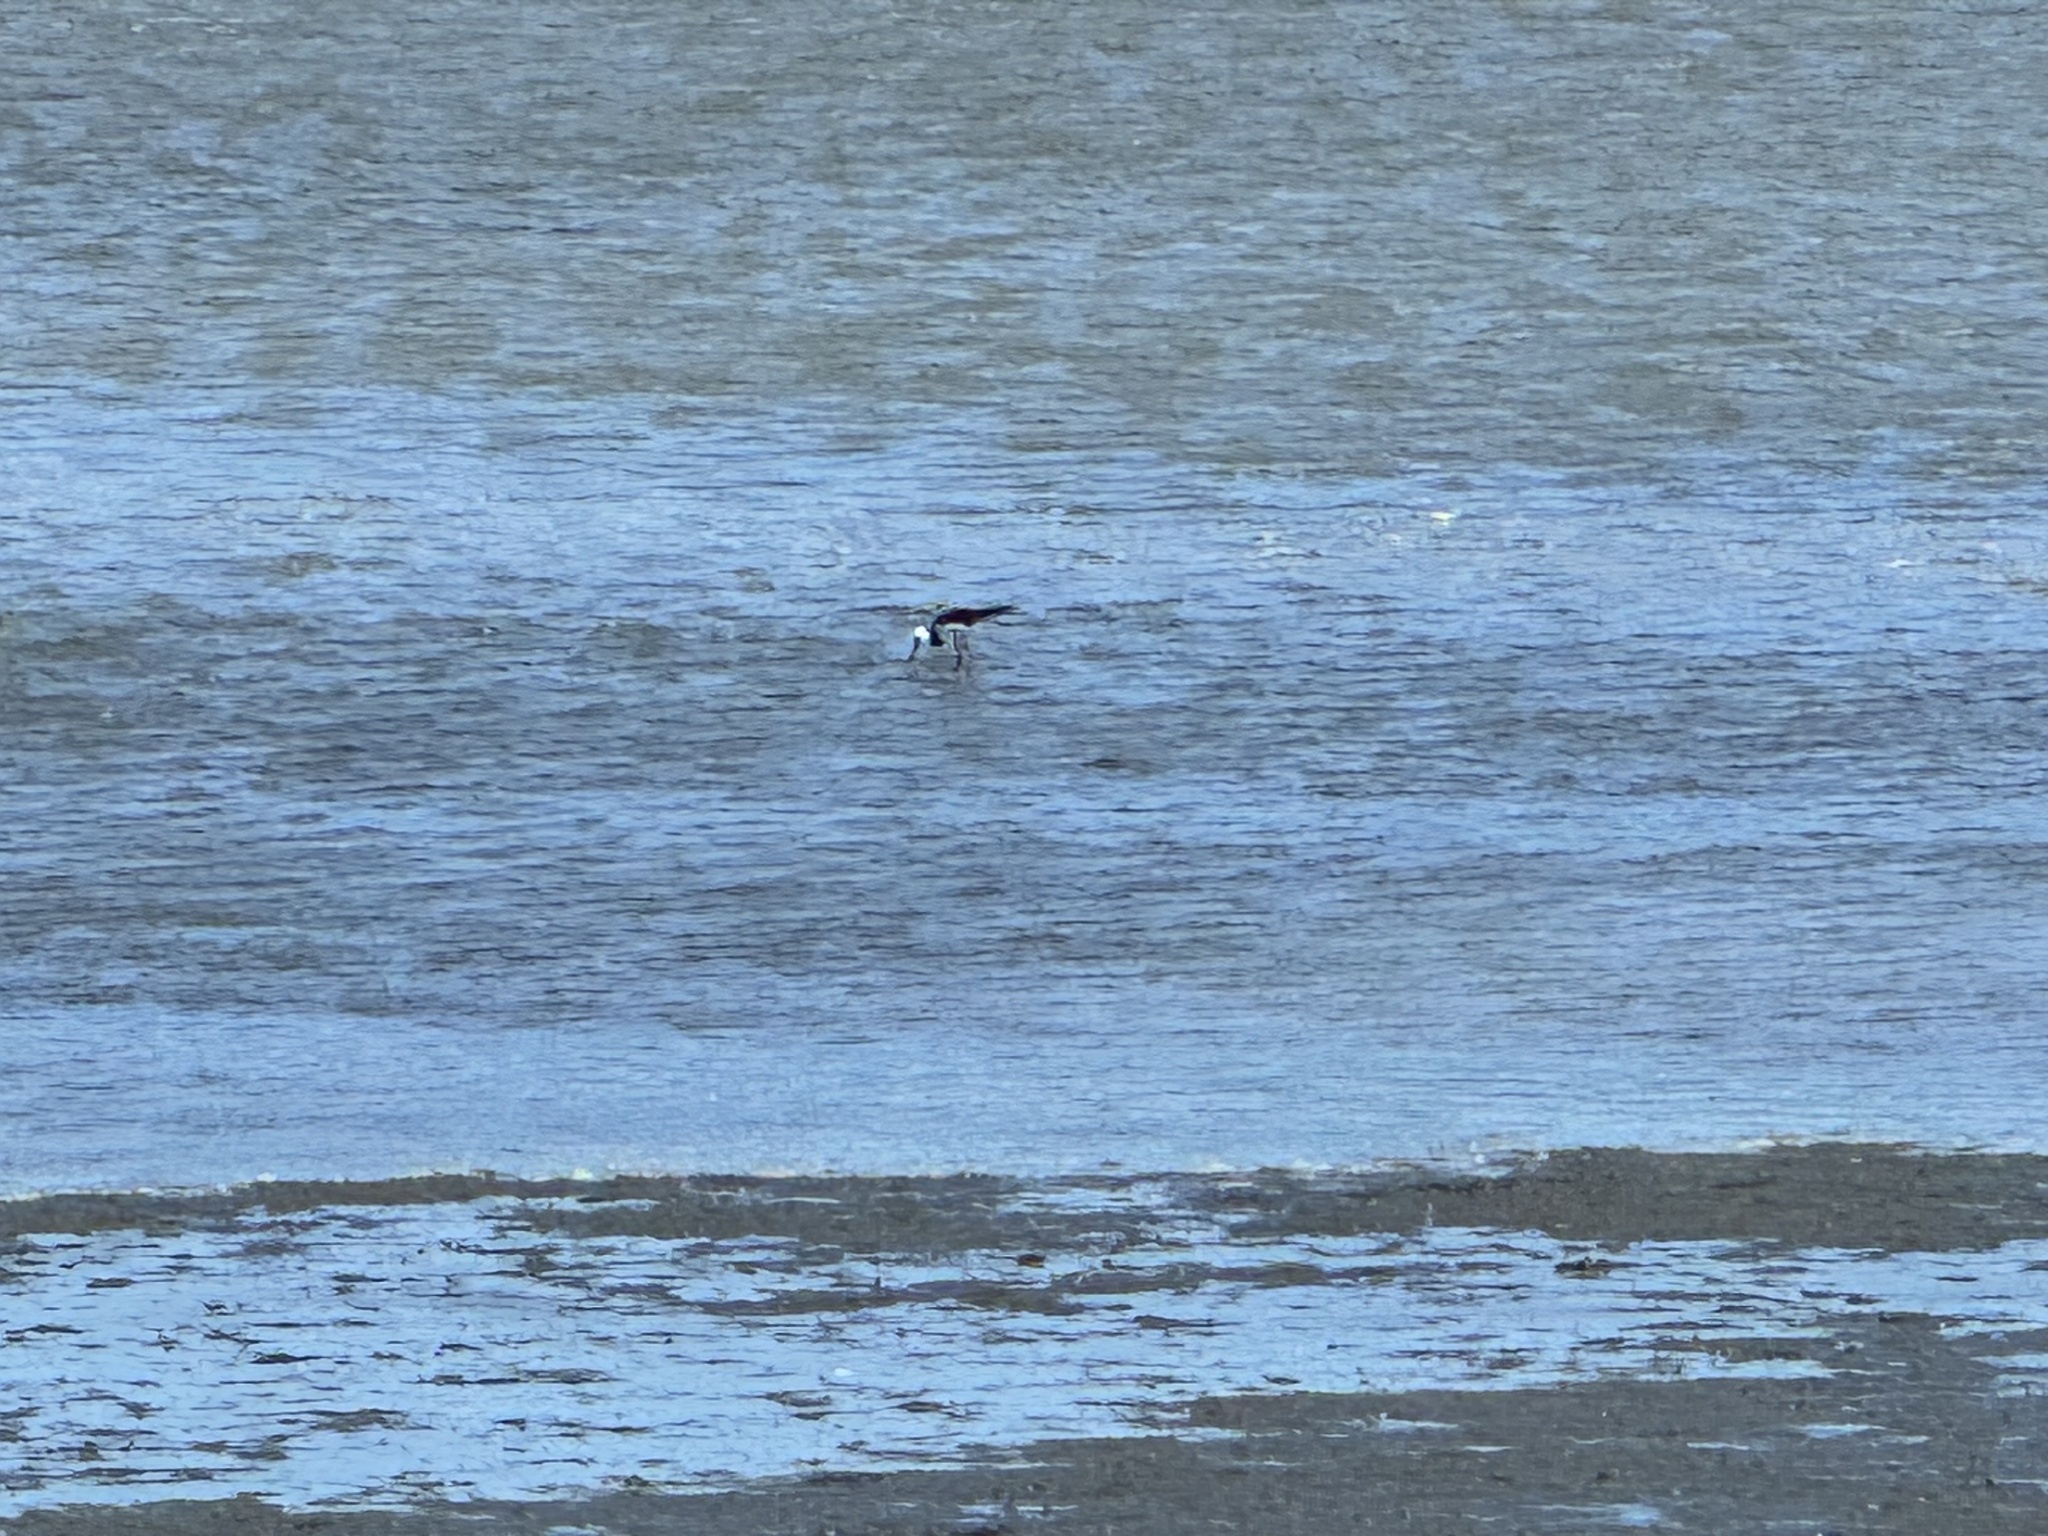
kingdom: Animalia
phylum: Chordata
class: Aves
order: Charadriiformes
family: Recurvirostridae
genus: Himantopus
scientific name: Himantopus leucocephalus
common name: White-headed stilt
